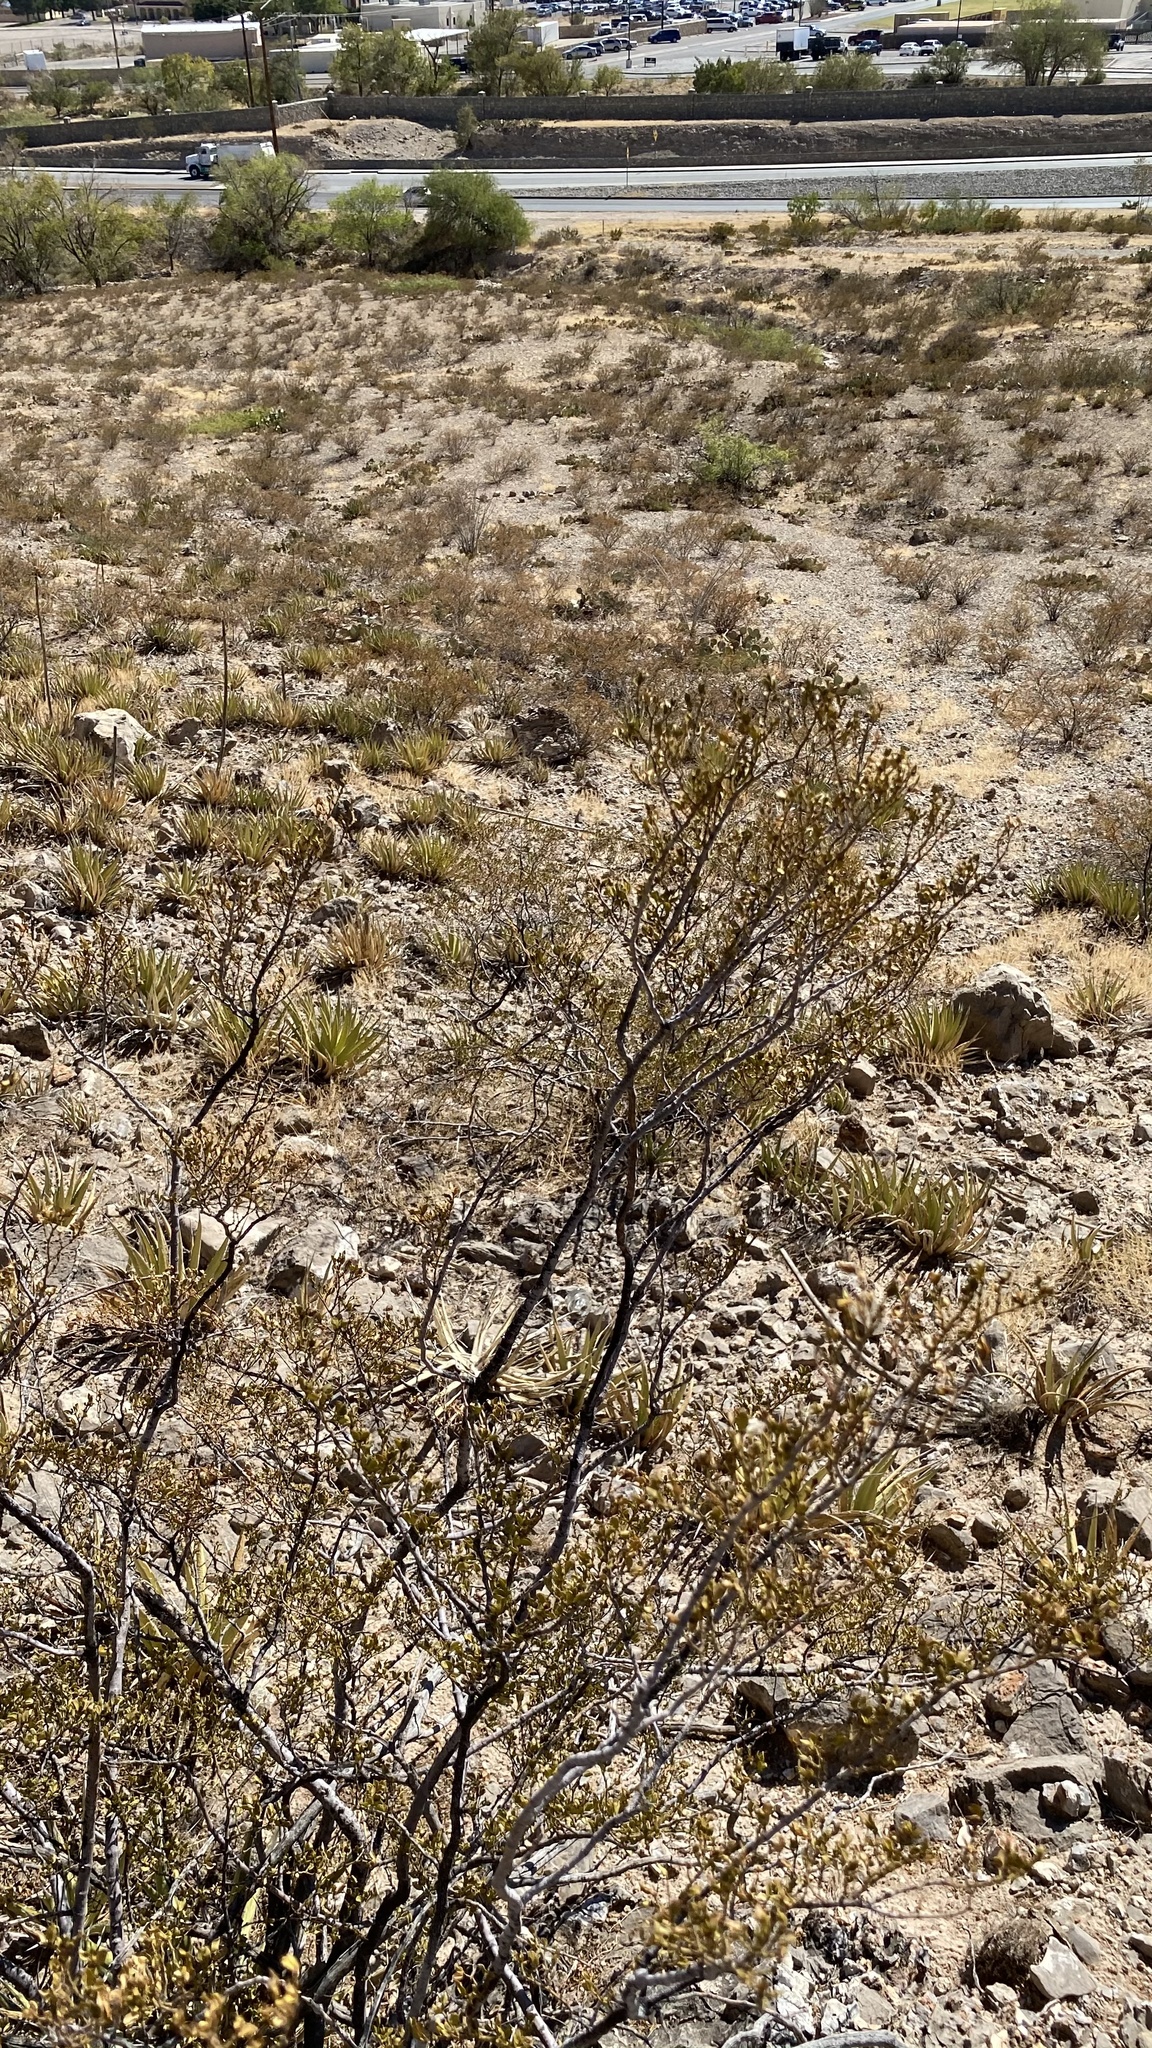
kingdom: Plantae
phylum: Tracheophyta
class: Magnoliopsida
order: Zygophyllales
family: Zygophyllaceae
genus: Larrea
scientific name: Larrea tridentata
